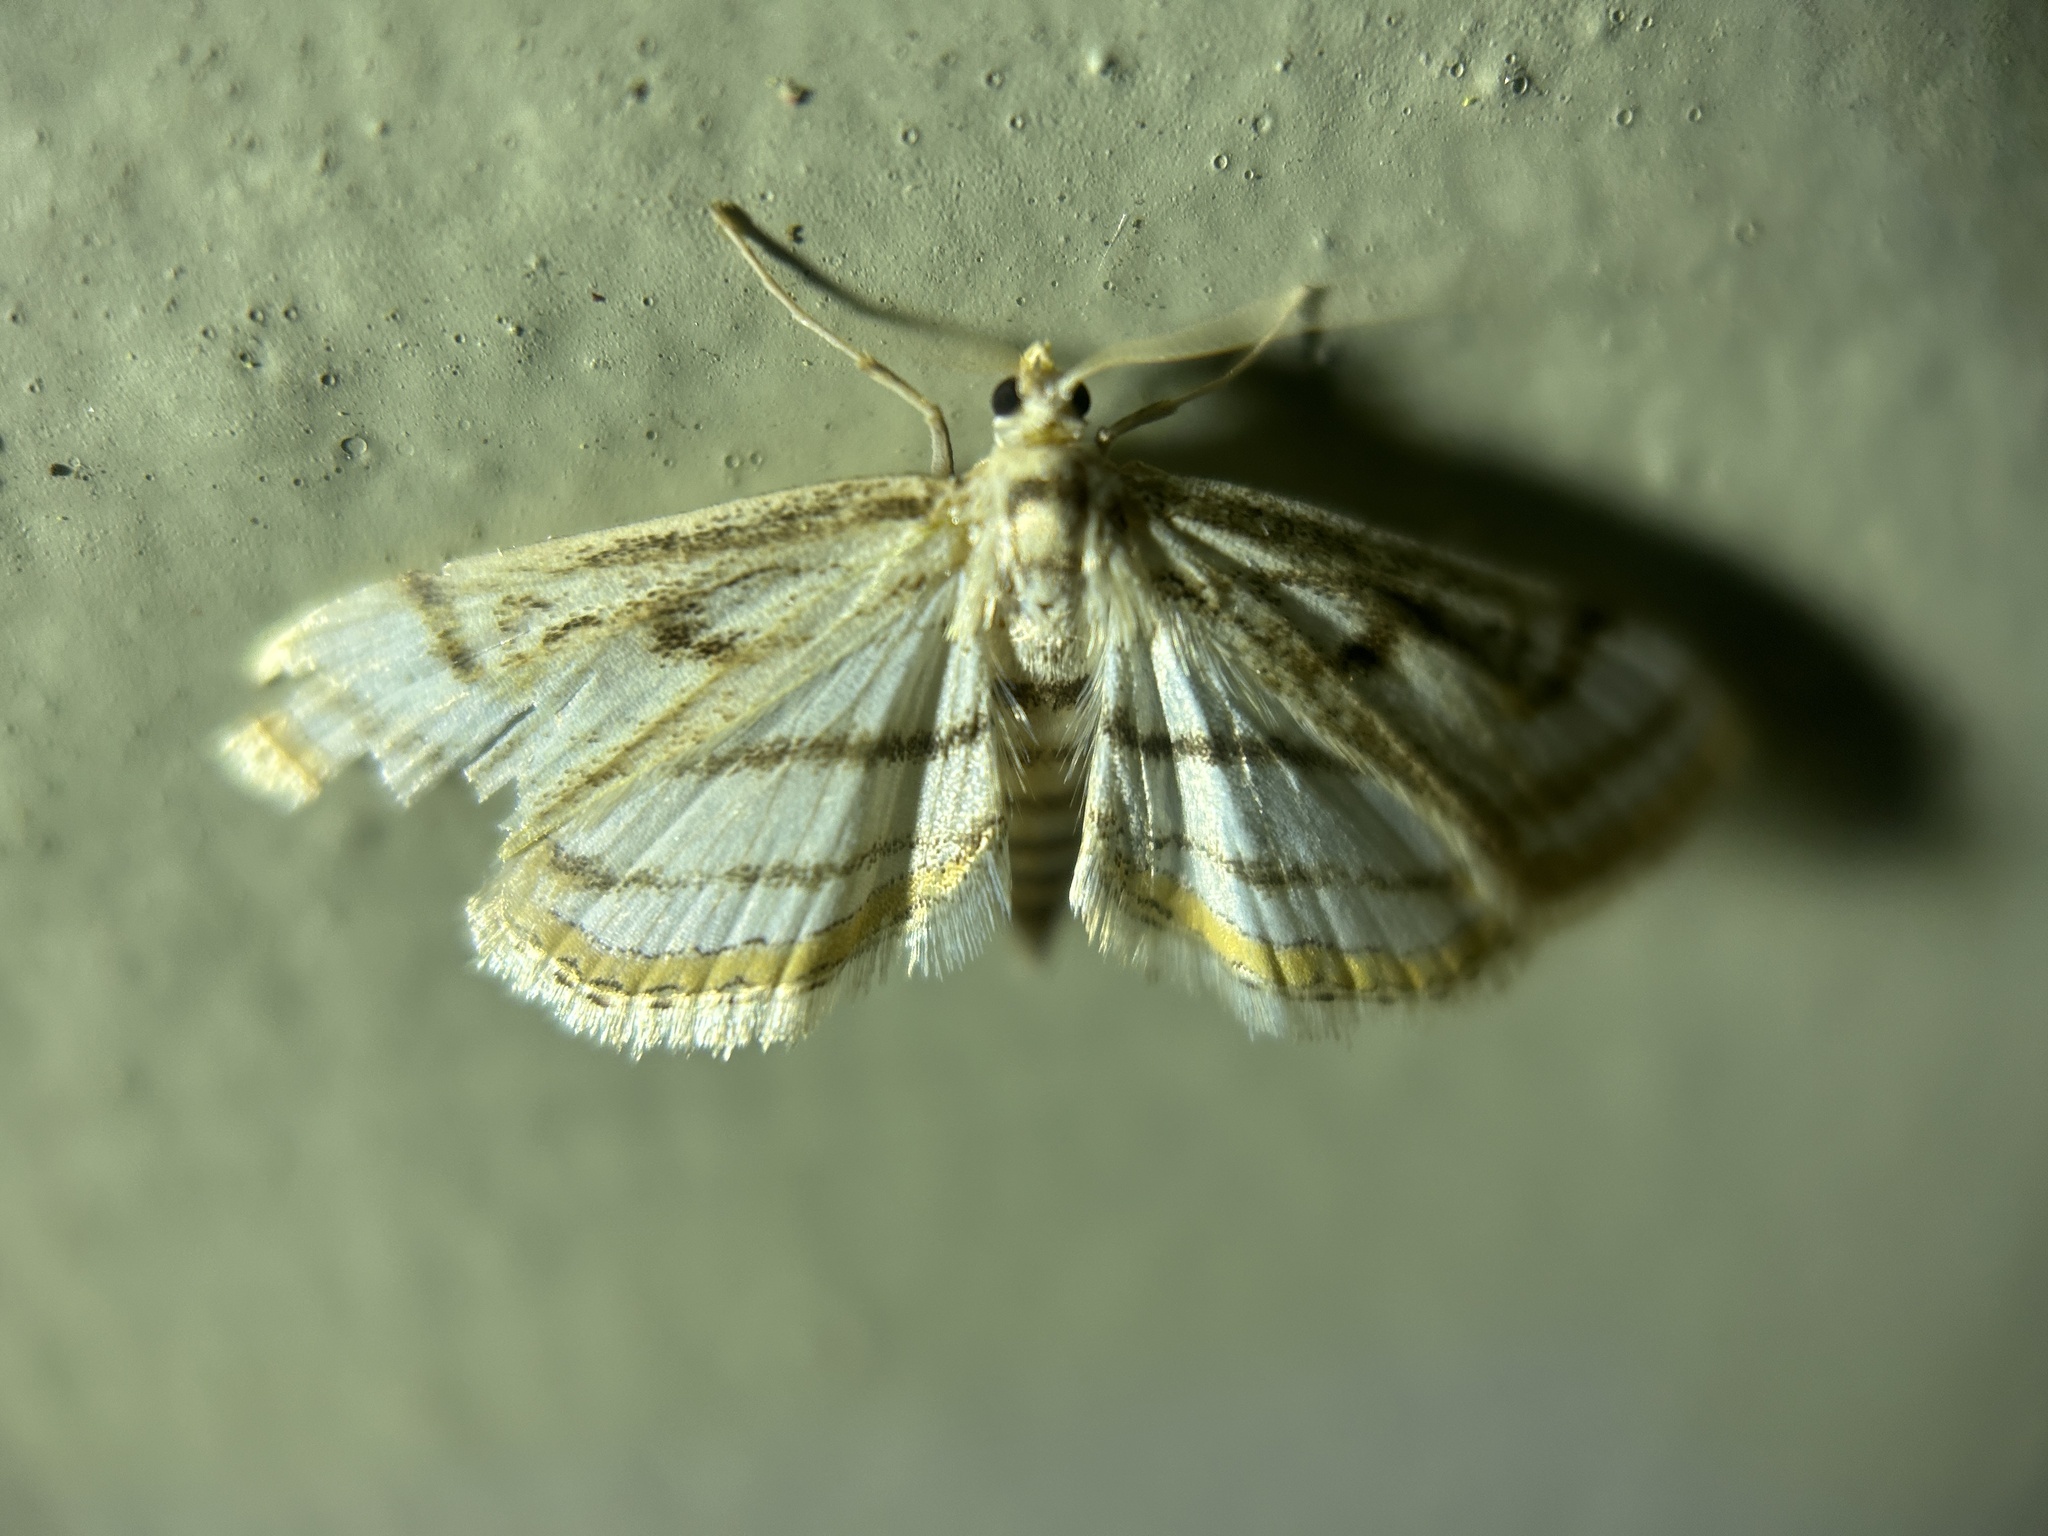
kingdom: Animalia
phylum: Arthropoda
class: Insecta
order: Lepidoptera
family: Crambidae
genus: Parapoynx
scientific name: Parapoynx badiusalis
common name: Chestnut-marked pondweed moth
